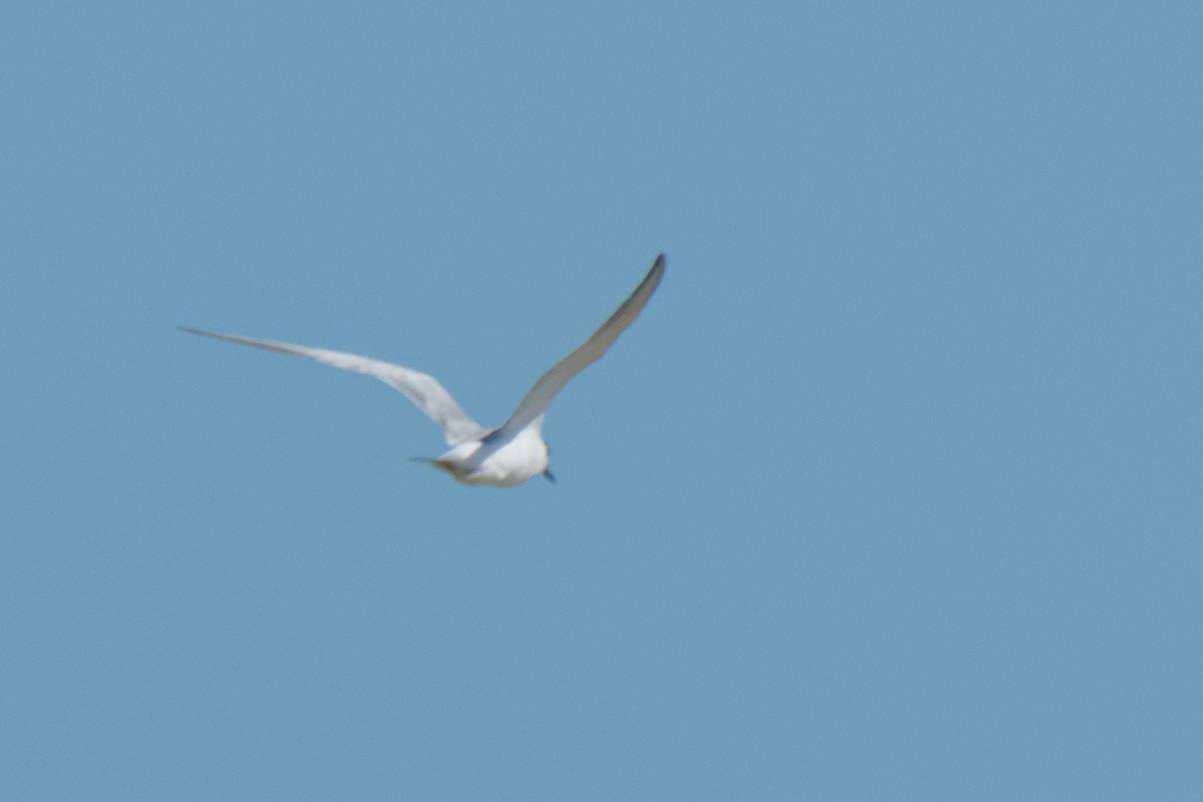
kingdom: Animalia
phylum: Chordata
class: Aves
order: Charadriiformes
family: Laridae
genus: Thalasseus
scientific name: Thalasseus sandvicensis
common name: Sandwich tern
